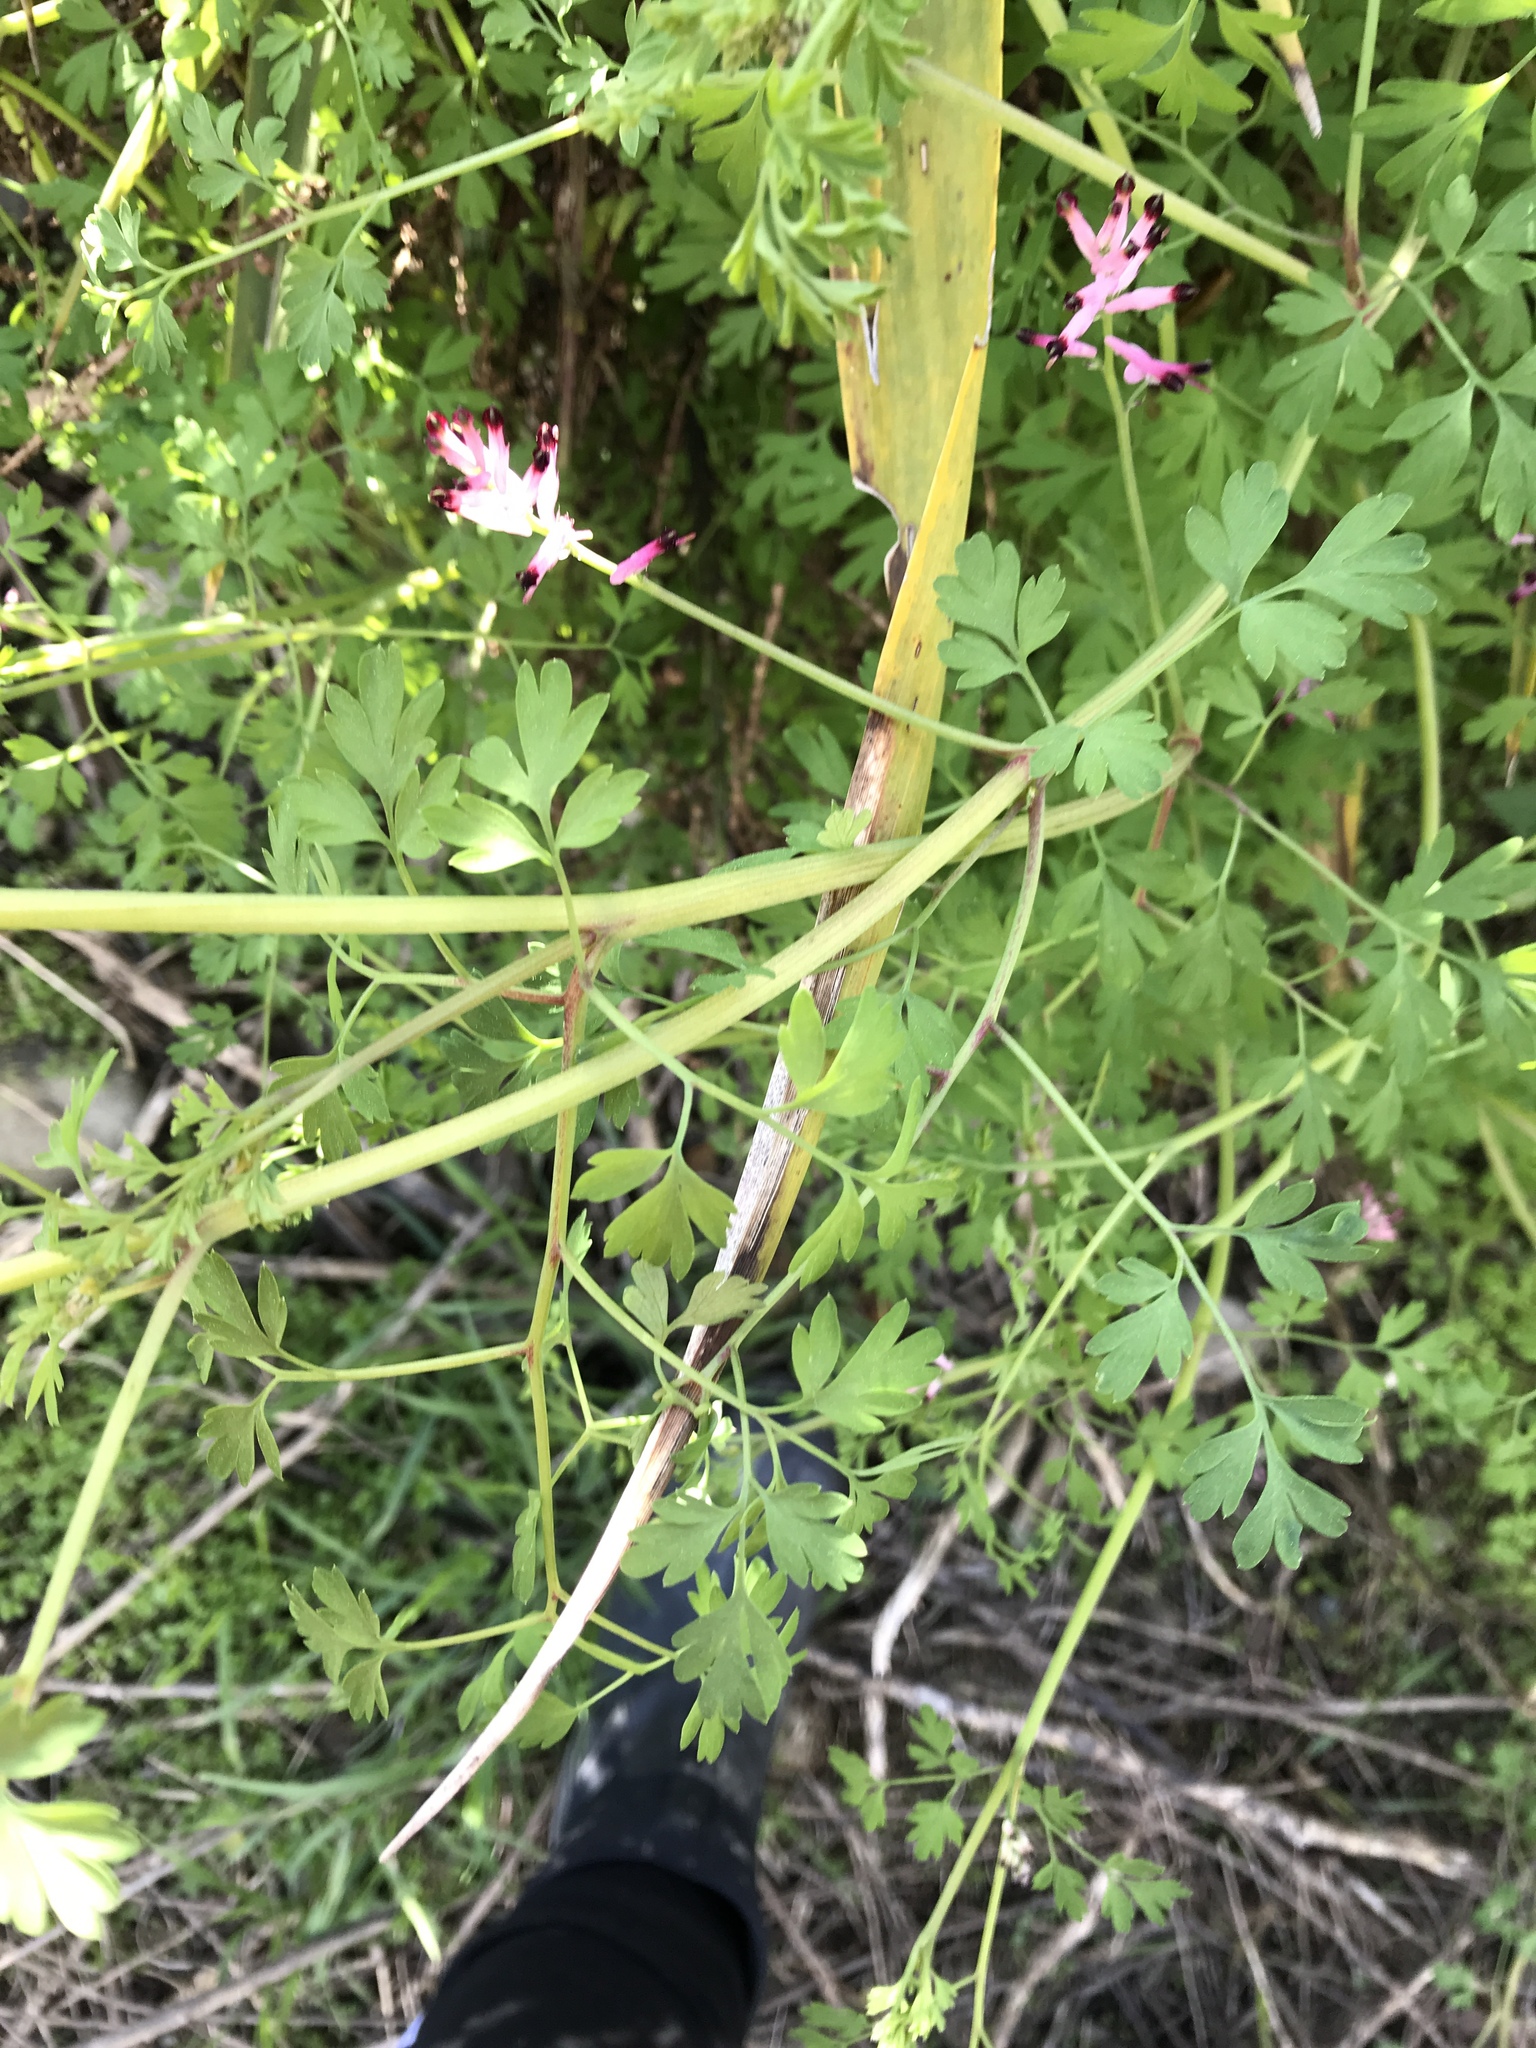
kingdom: Plantae
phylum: Tracheophyta
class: Magnoliopsida
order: Ranunculales
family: Papaveraceae
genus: Fumaria
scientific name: Fumaria muralis
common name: Common ramping-fumitory
